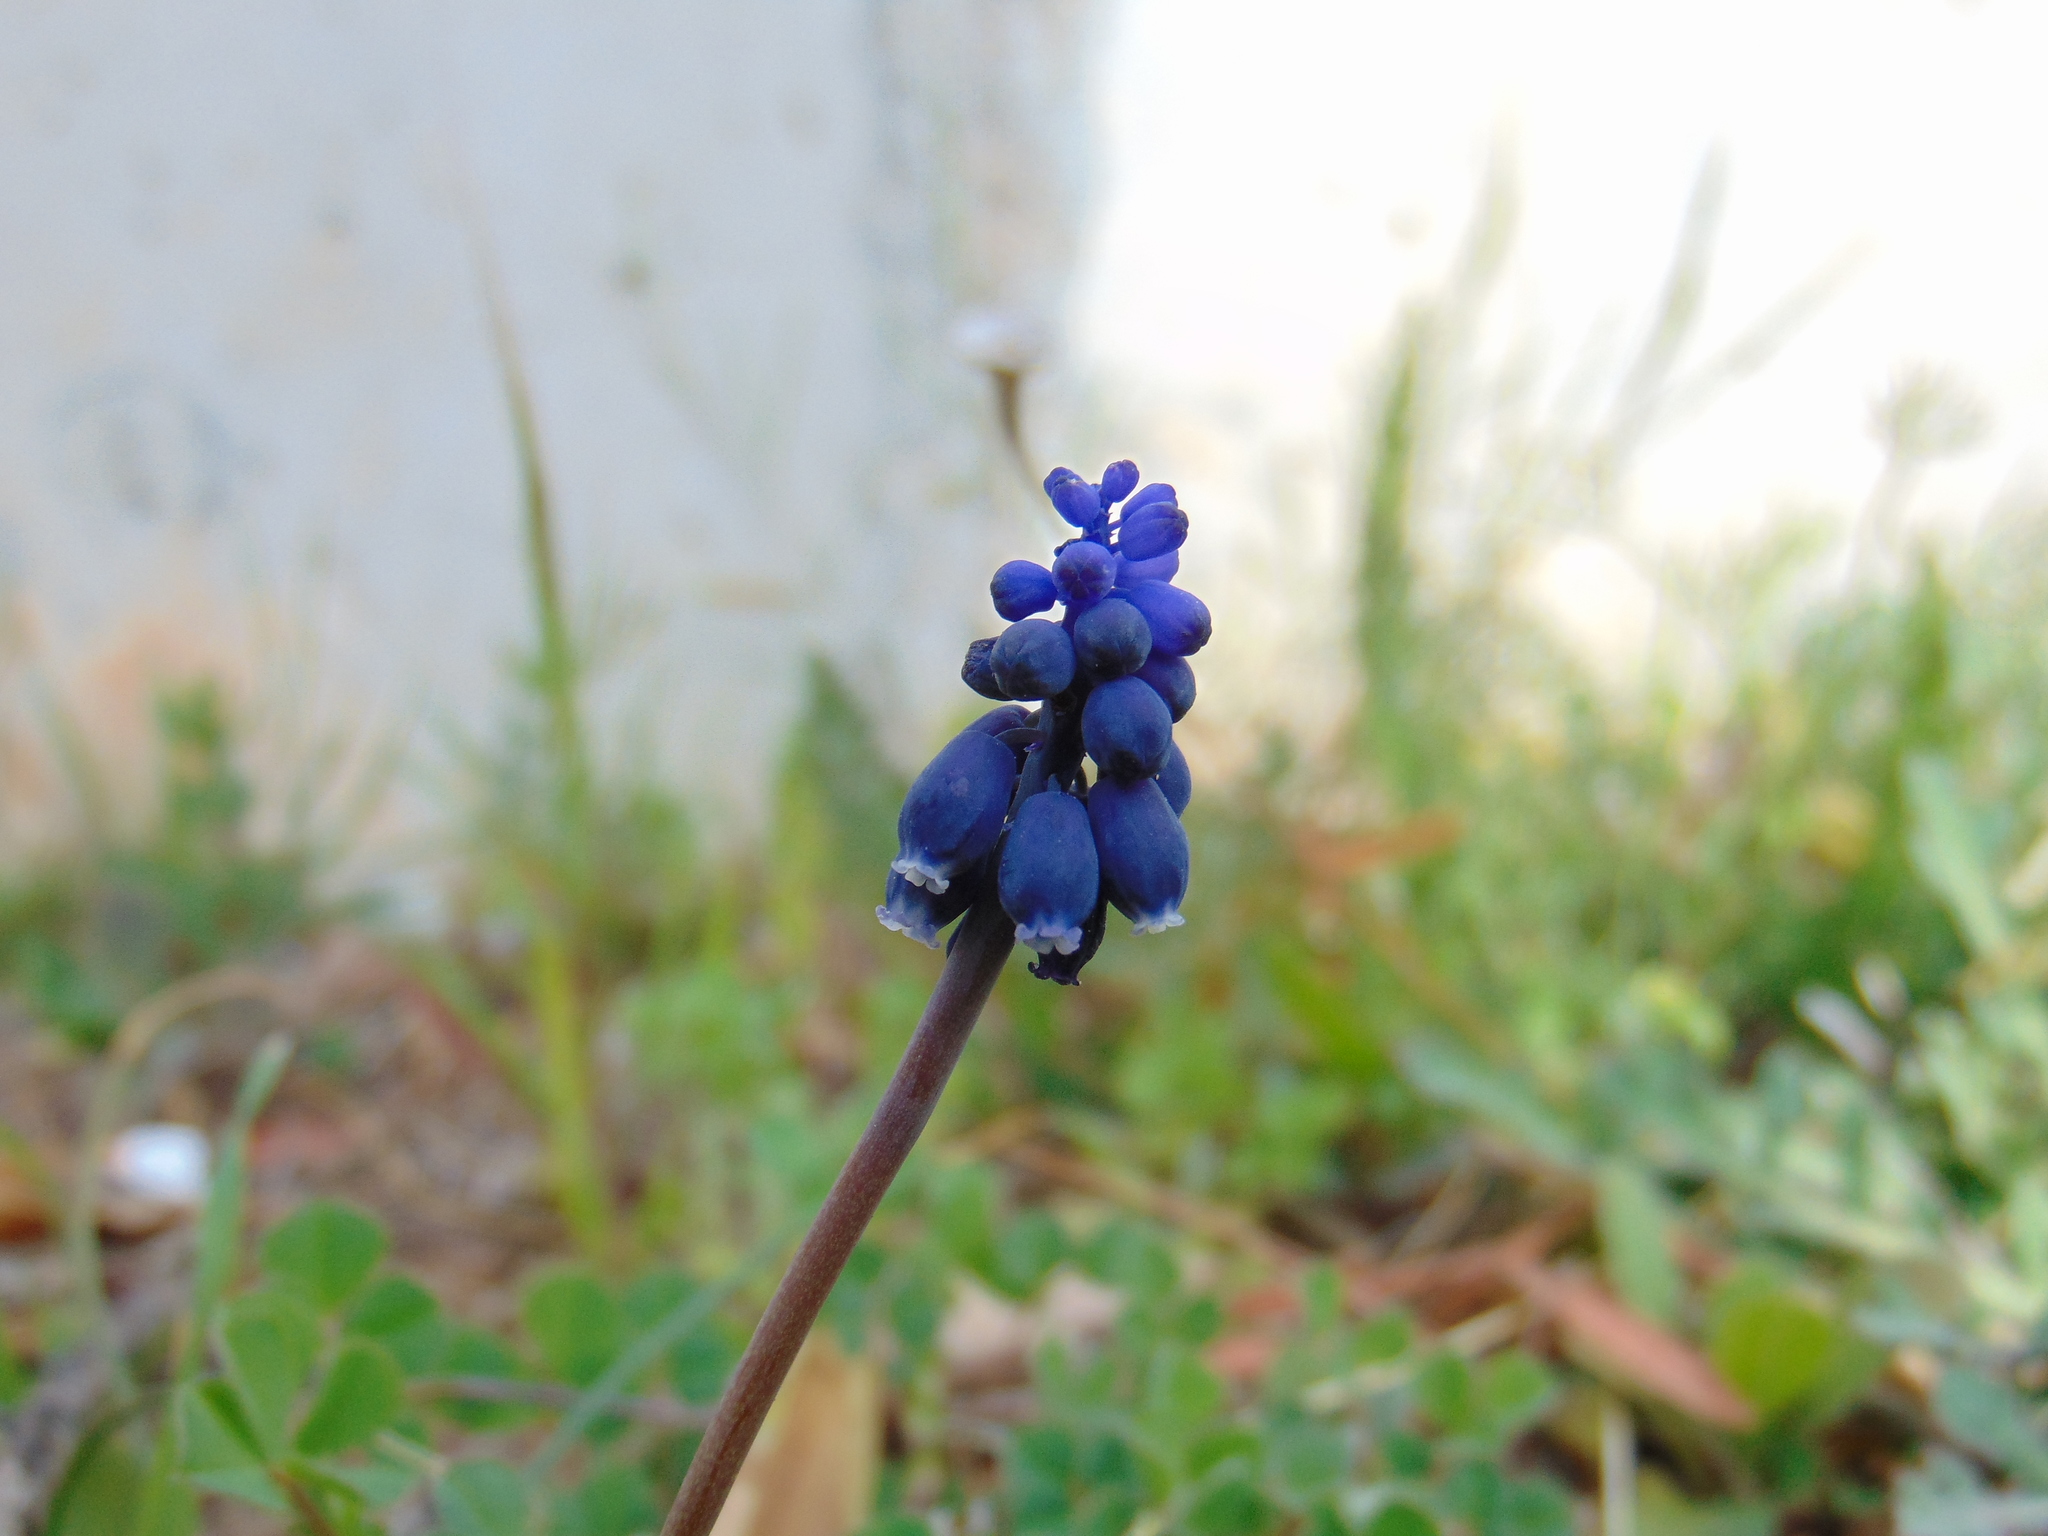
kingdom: Plantae
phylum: Tracheophyta
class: Liliopsida
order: Asparagales
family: Asparagaceae
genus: Muscari
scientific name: Muscari neglectum
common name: Grape-hyacinth
